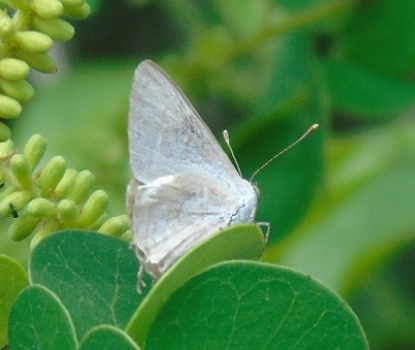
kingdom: Animalia
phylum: Arthropoda
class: Insecta
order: Lepidoptera
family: Lycaenidae
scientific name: Lycaenidae
